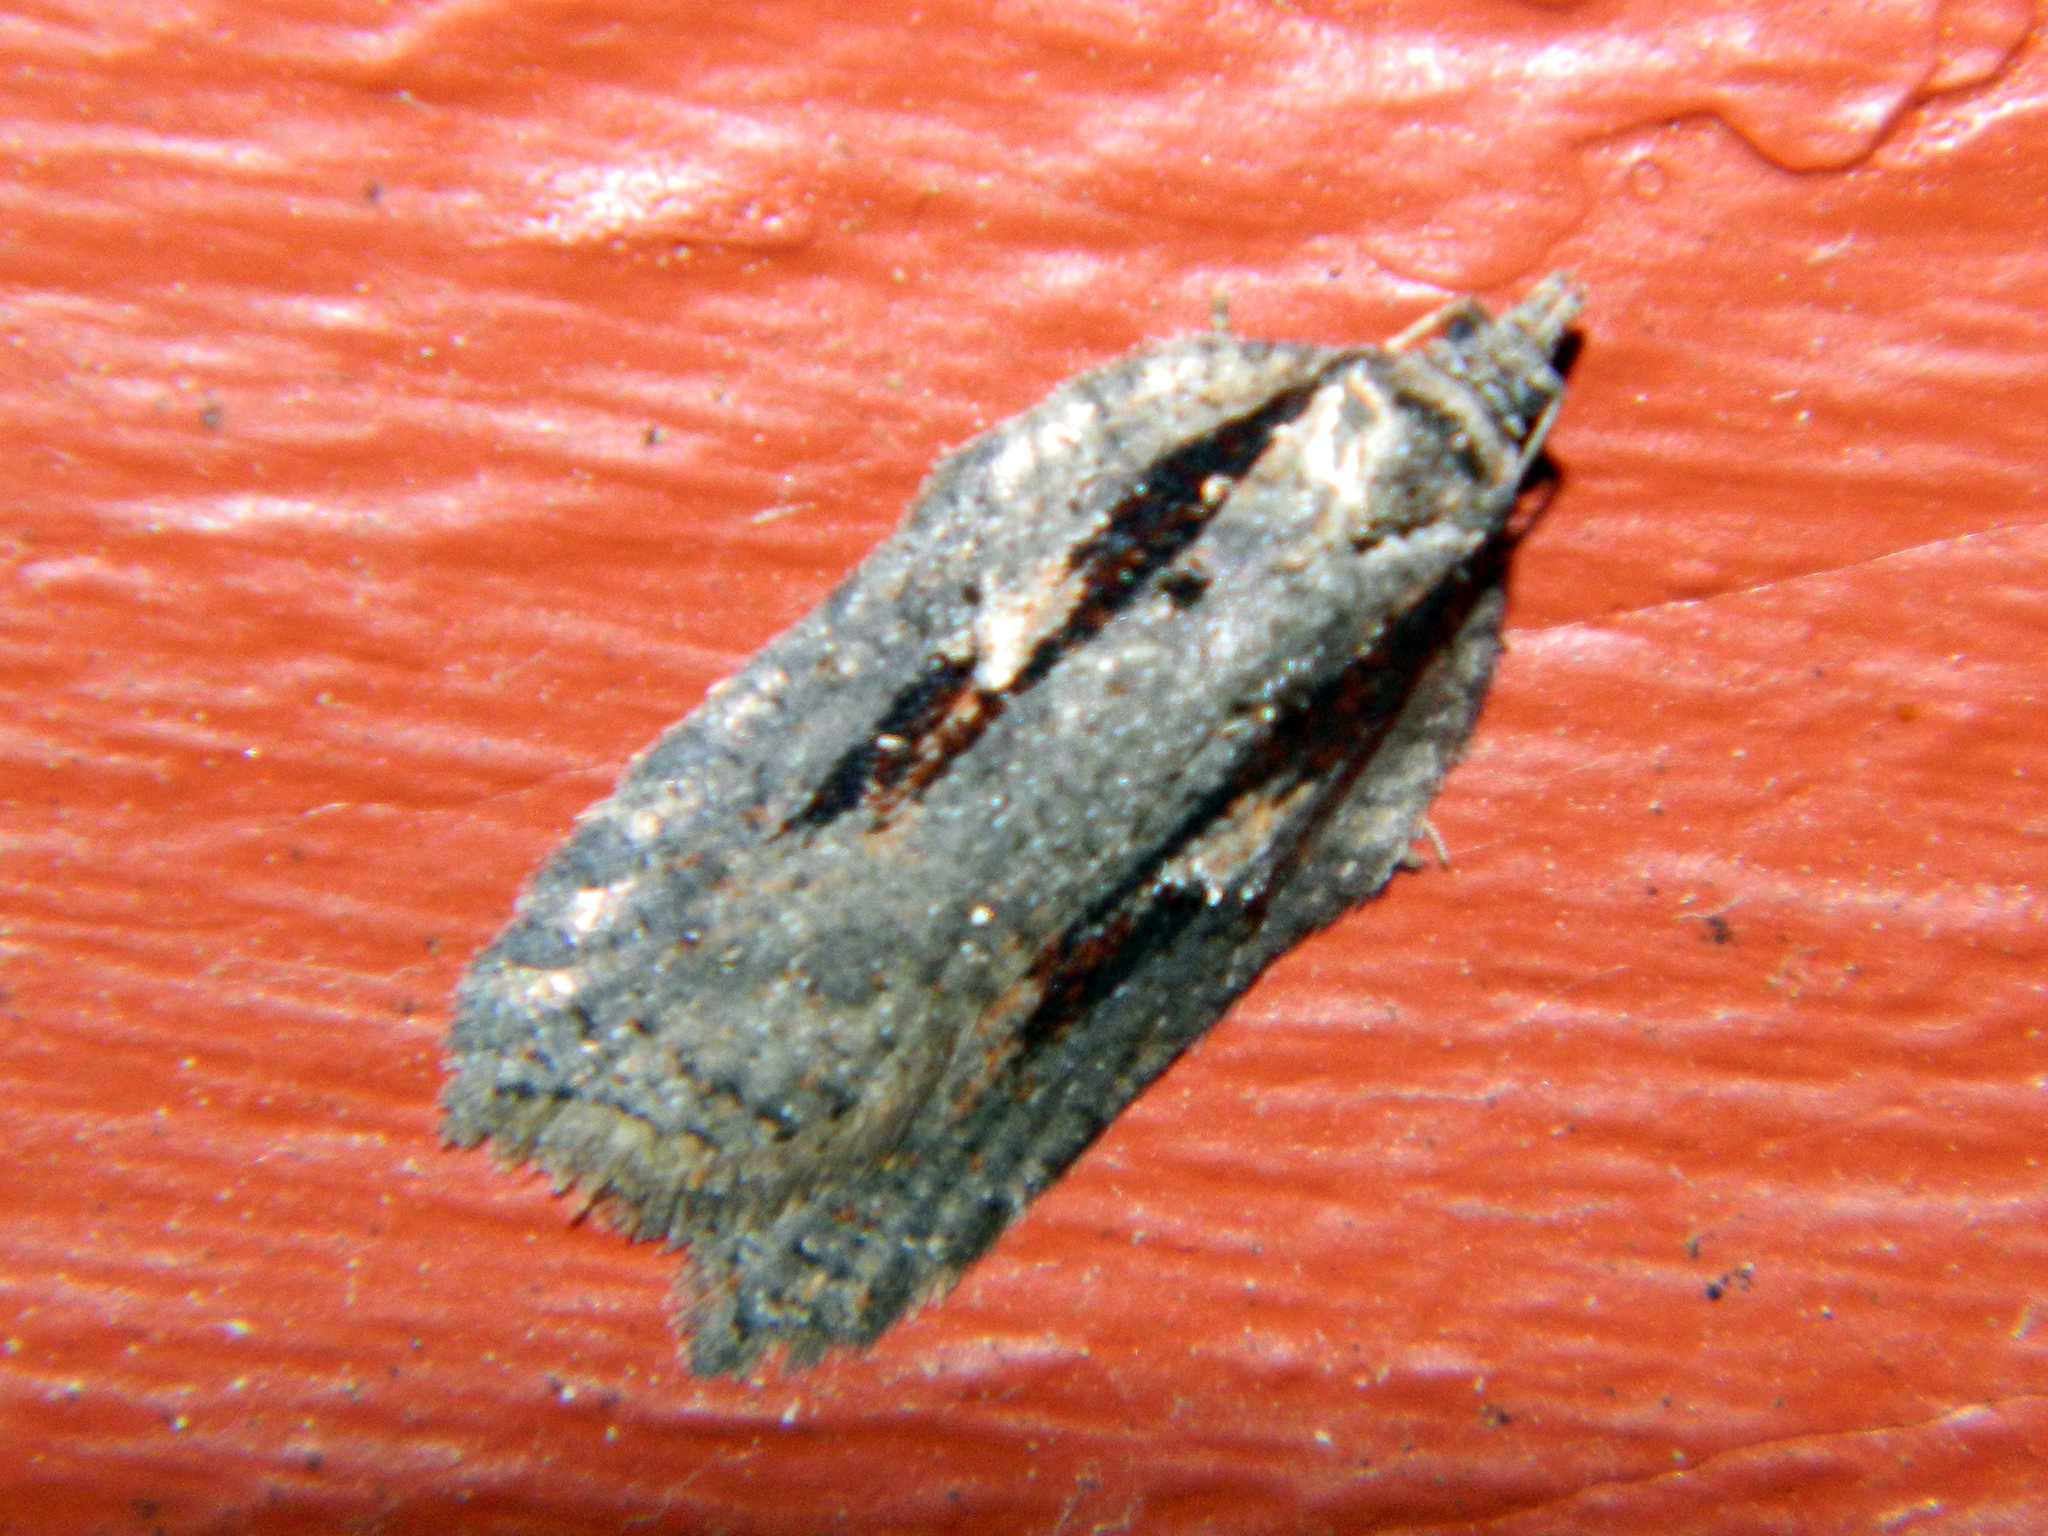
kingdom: Animalia
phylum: Arthropoda
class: Insecta
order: Lepidoptera
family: Tortricidae
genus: Acleris
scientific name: Acleris hastiana
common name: Sallow button
